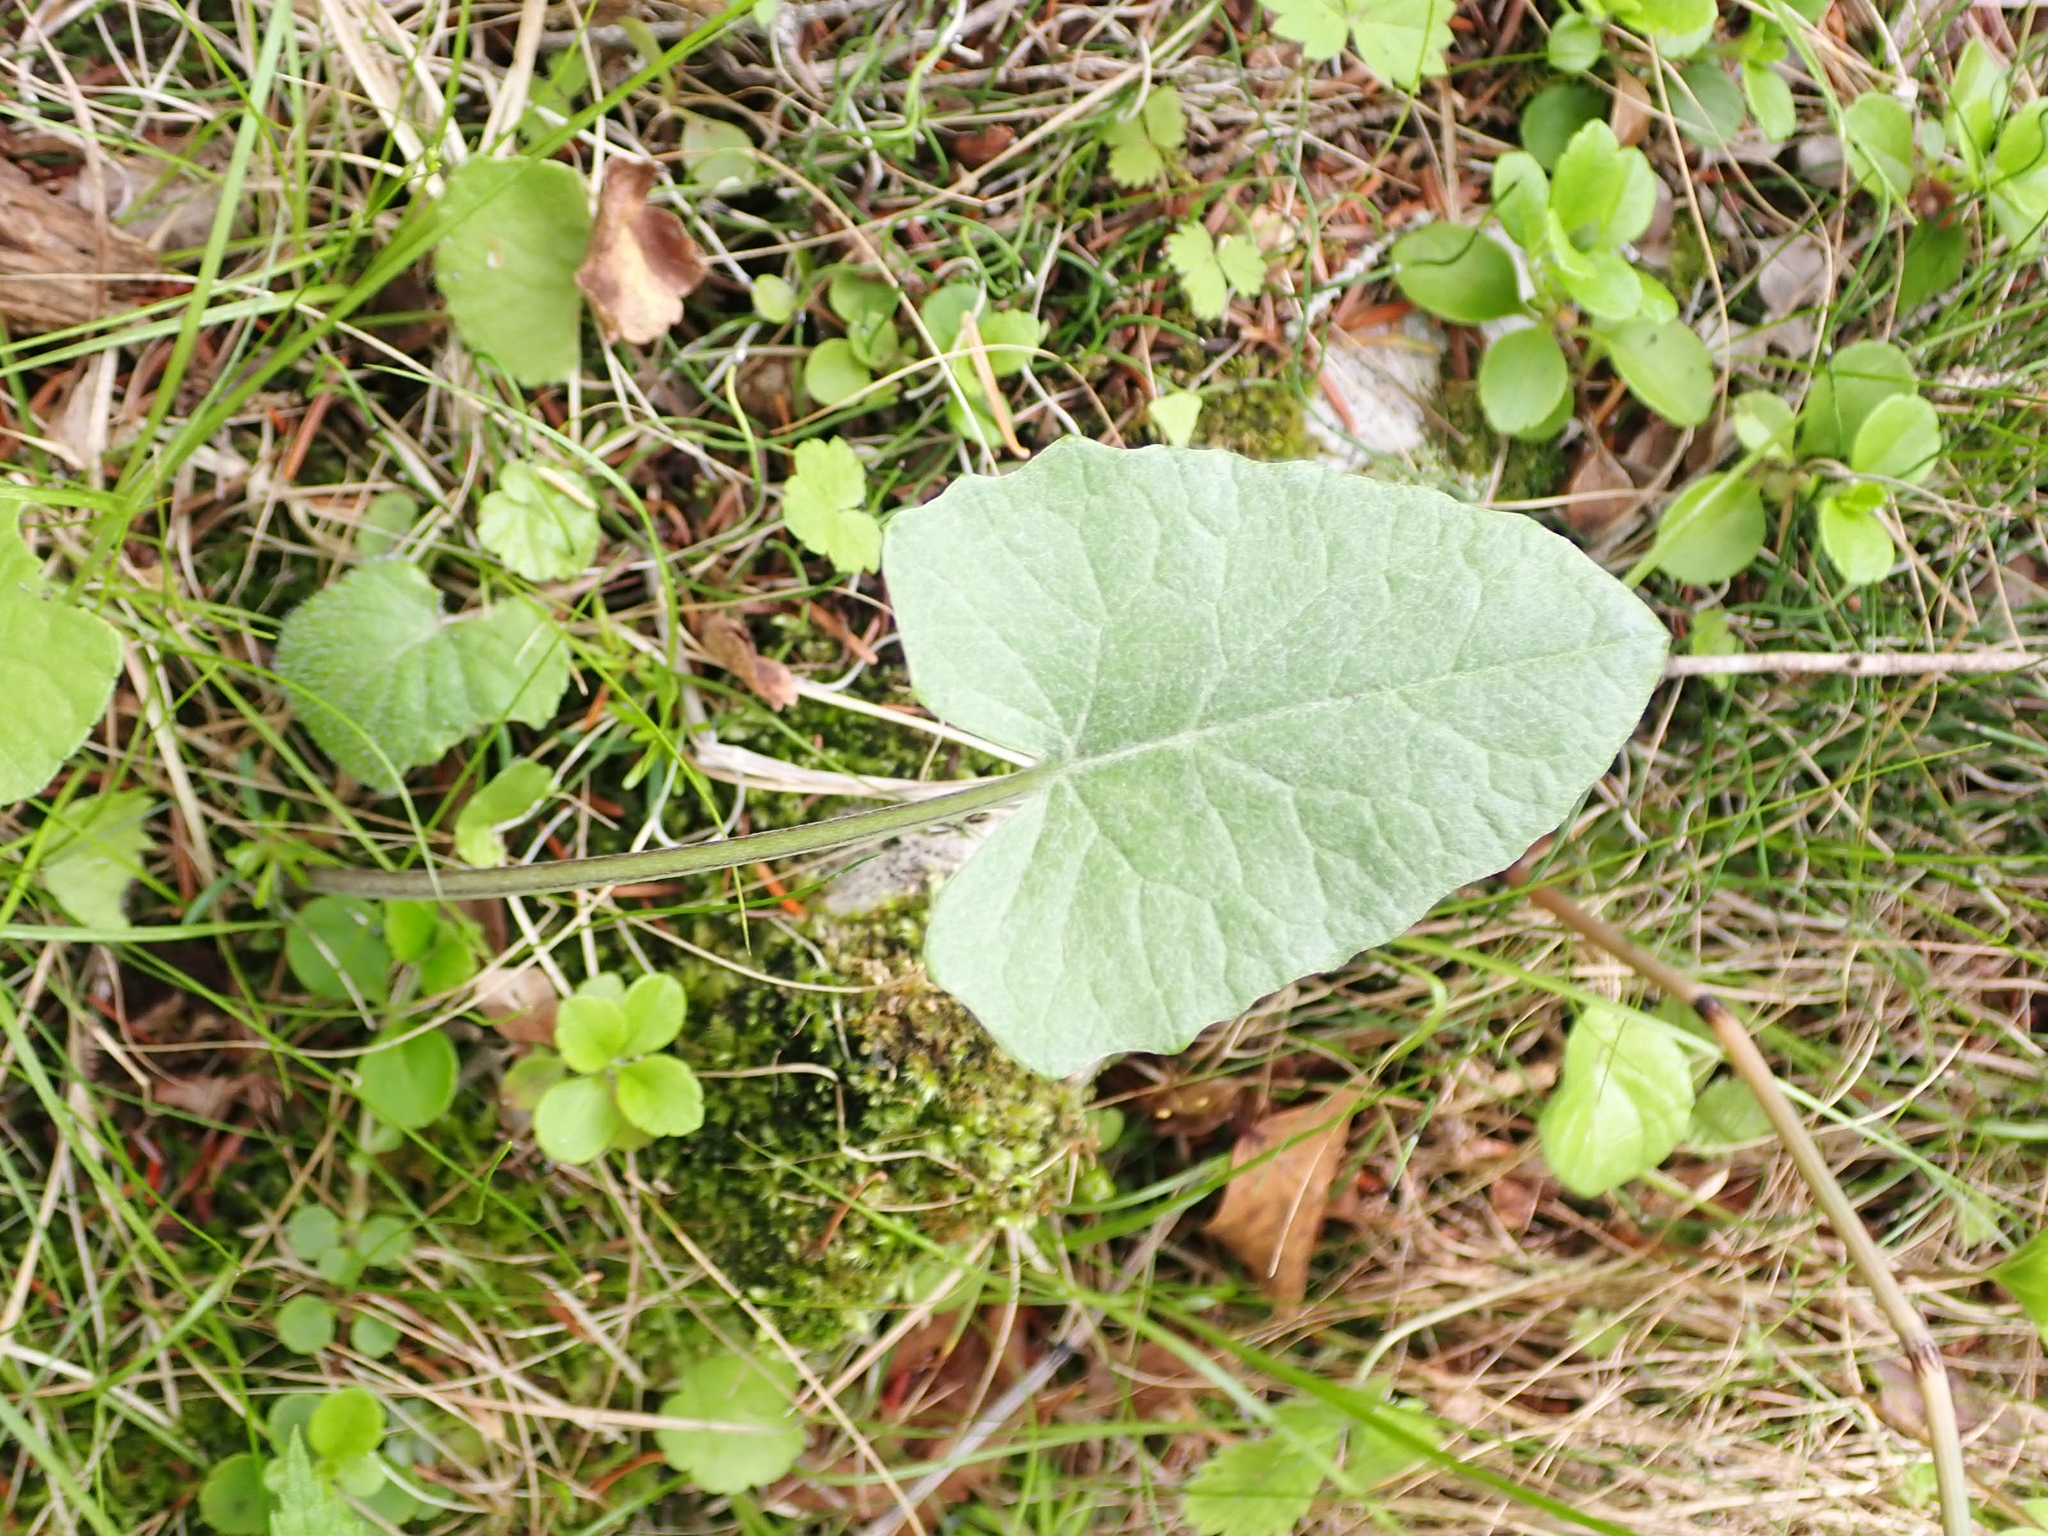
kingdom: Plantae
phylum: Tracheophyta
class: Magnoliopsida
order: Asterales
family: Asteraceae
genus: Petasites
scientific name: Petasites frigidus
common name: Arctic butterbur
